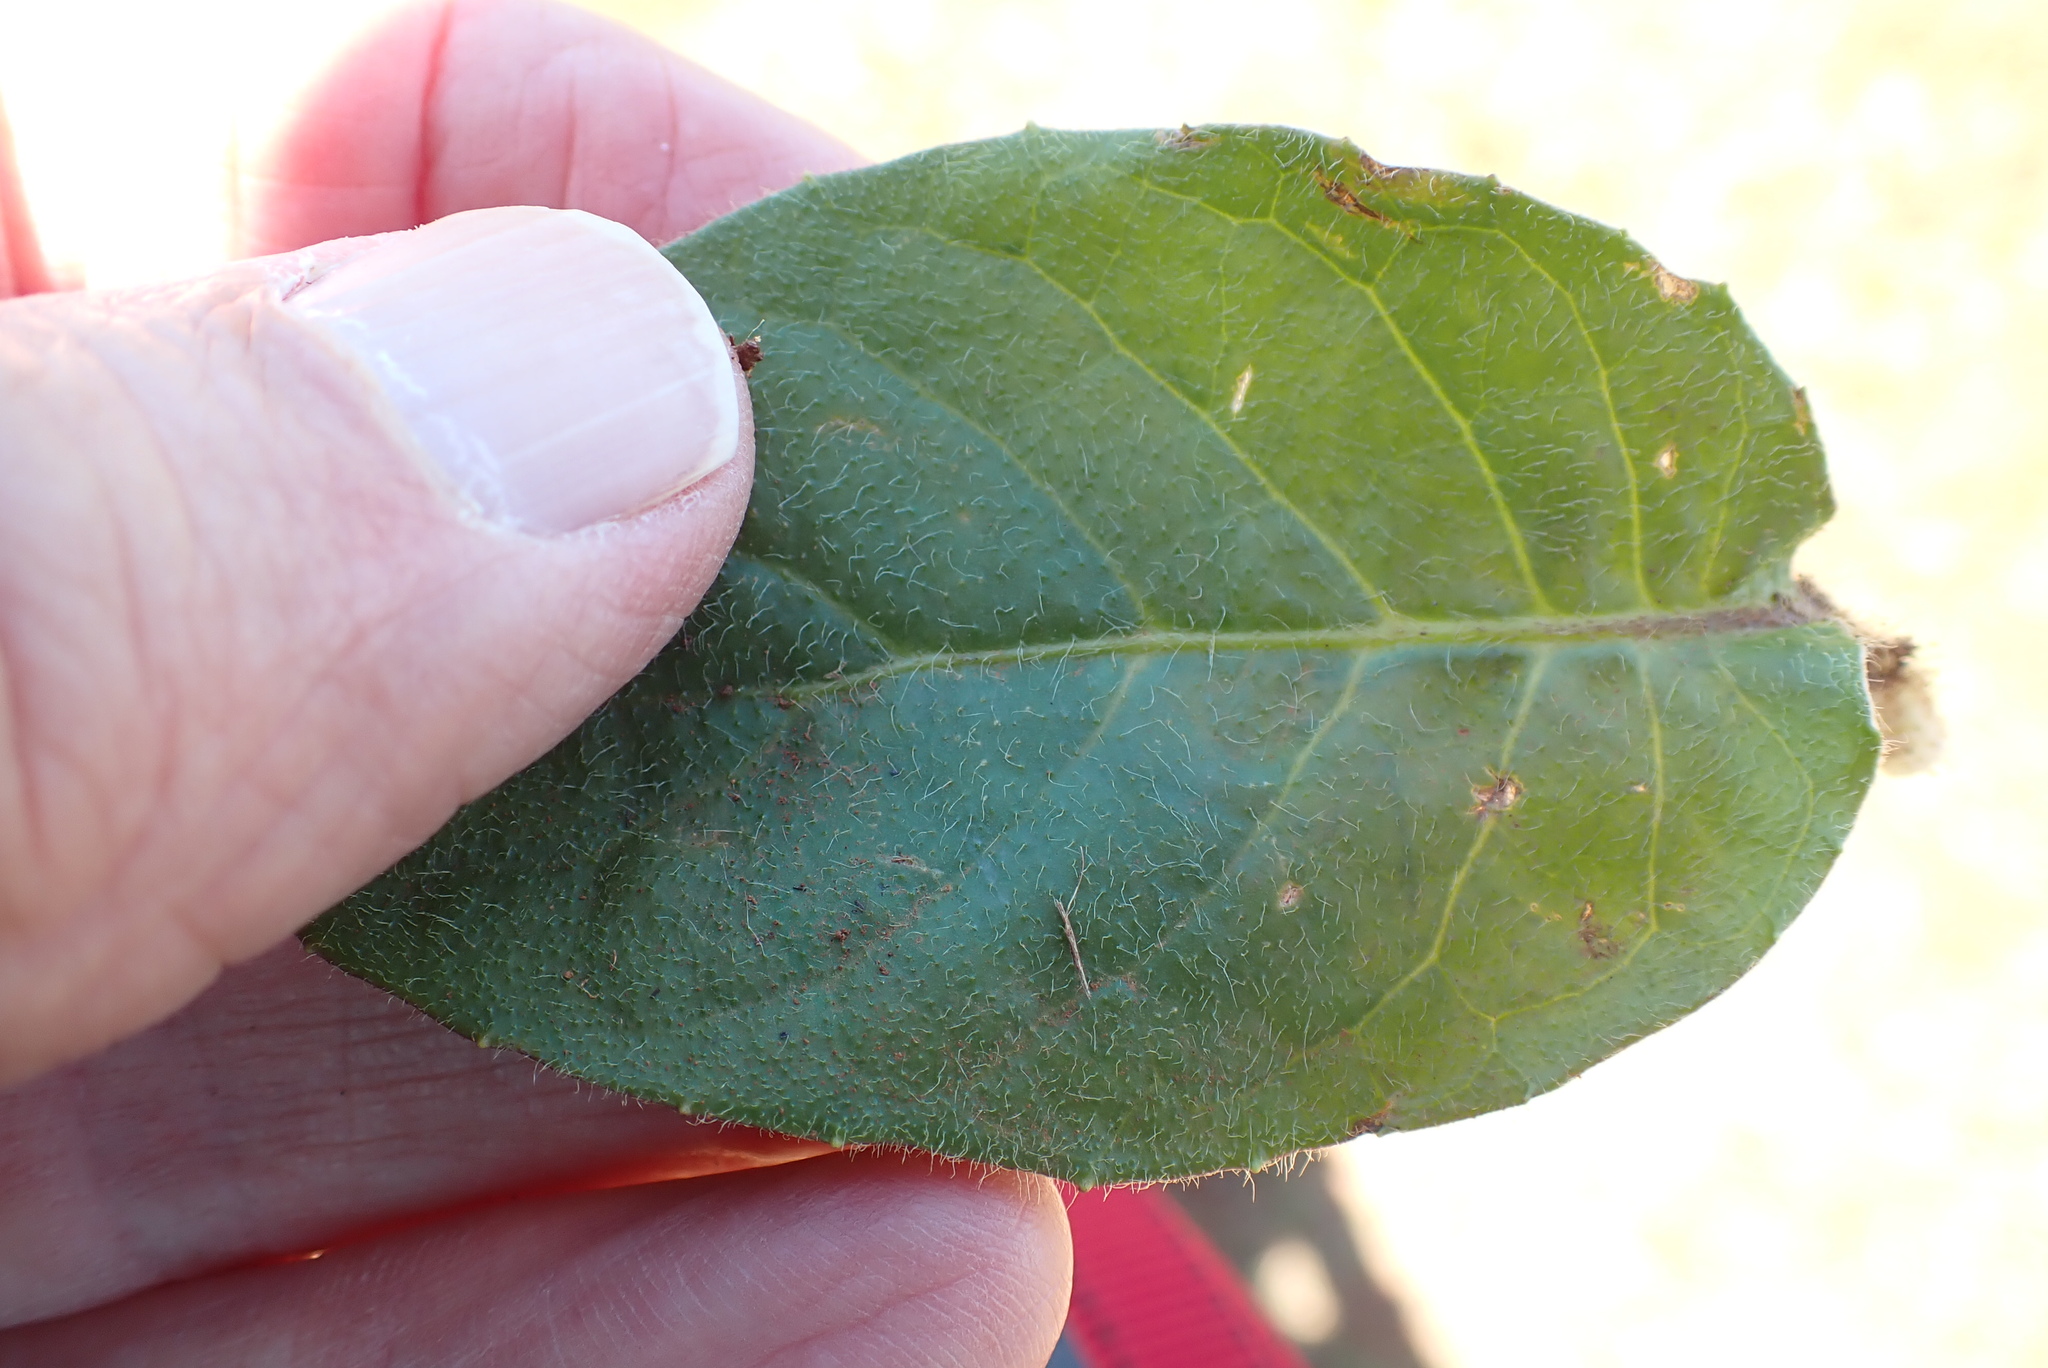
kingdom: Plantae
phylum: Tracheophyta
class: Magnoliopsida
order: Asterales
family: Asteraceae
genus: Gerbera
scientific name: Gerbera ambigua
